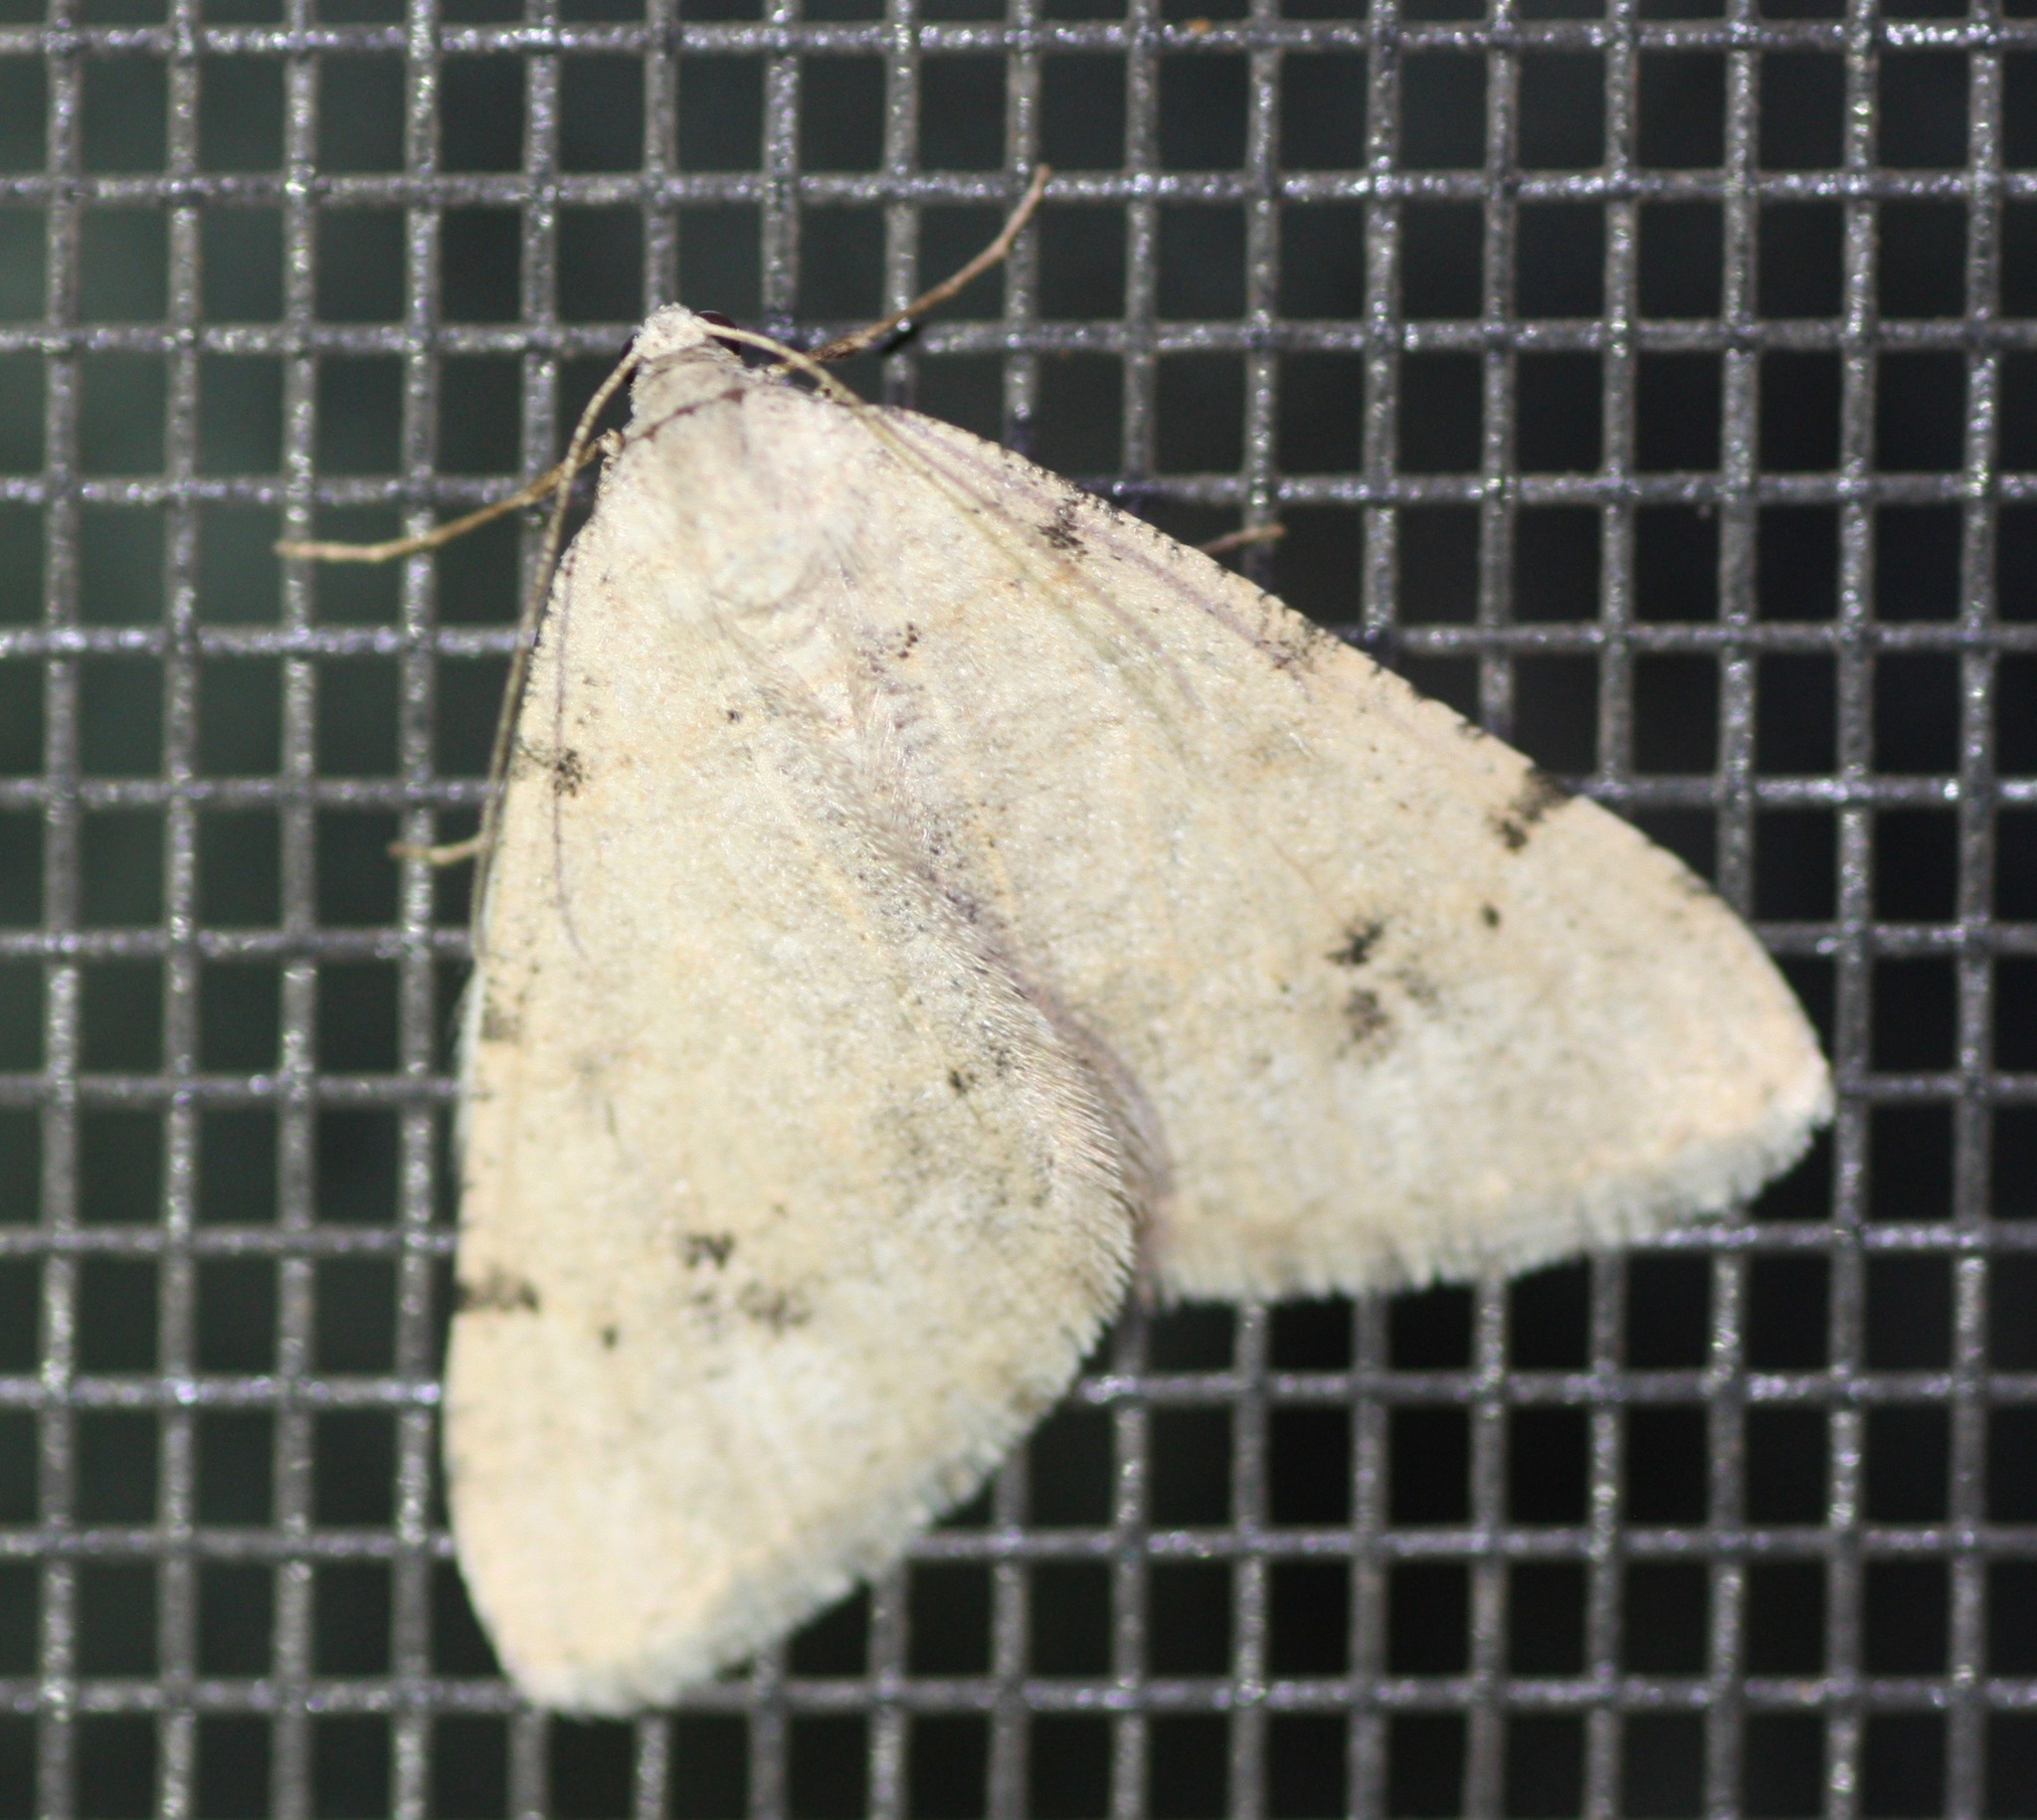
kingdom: Animalia
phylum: Arthropoda
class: Insecta
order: Lepidoptera
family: Geometridae
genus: Digrammia
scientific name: Digrammia colorata
